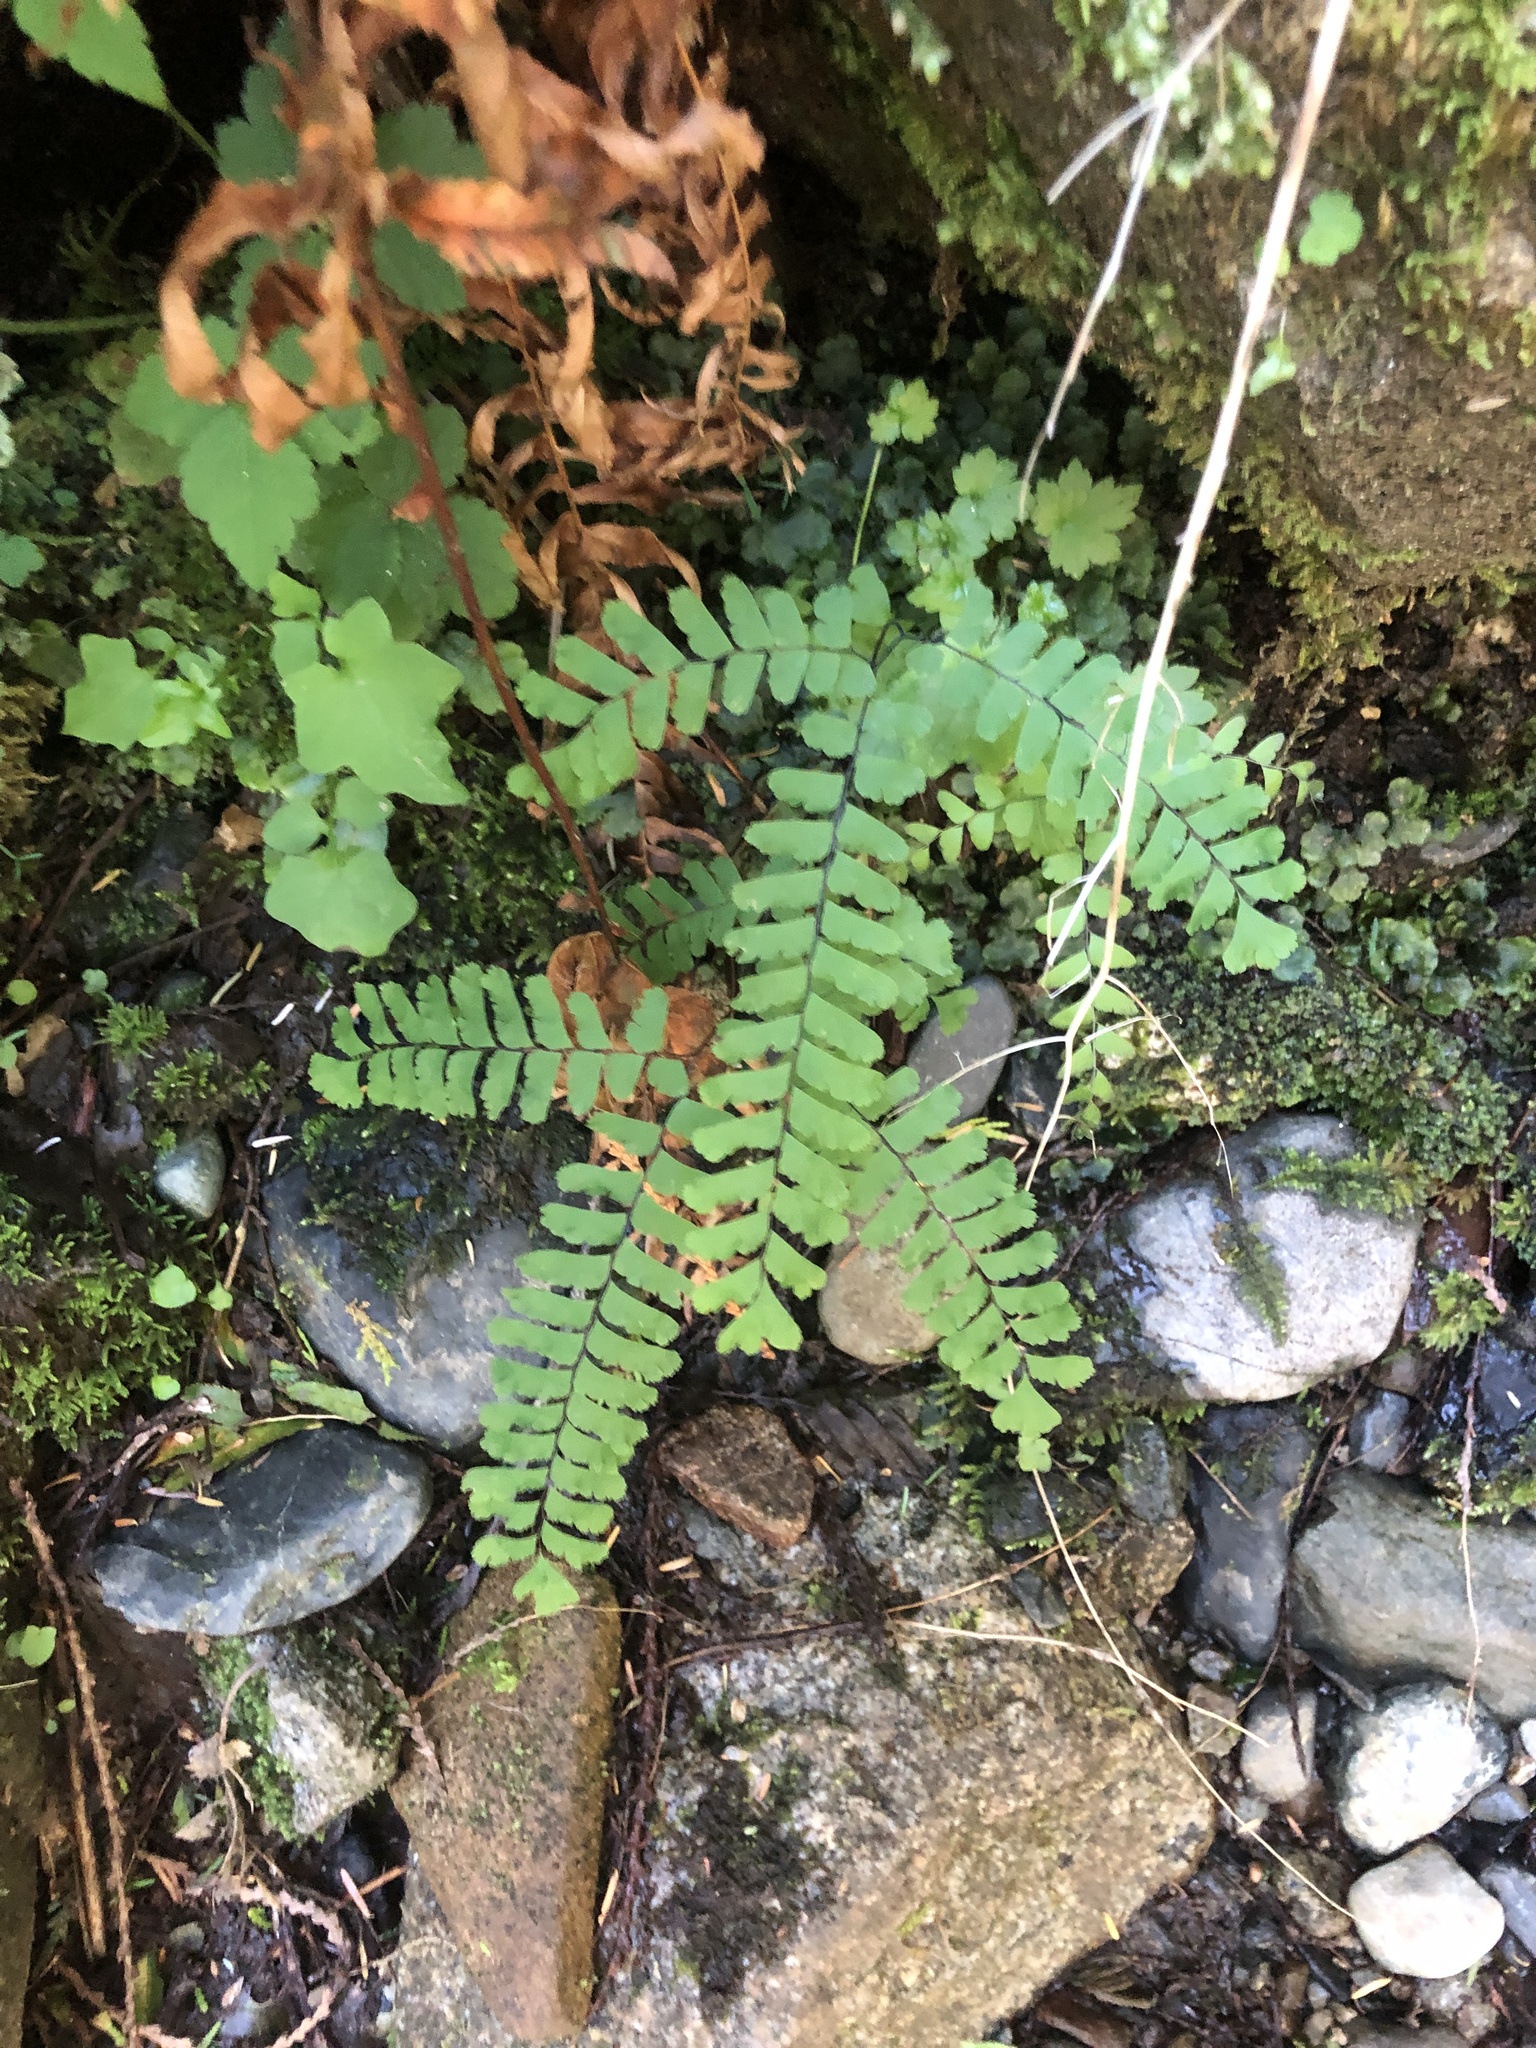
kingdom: Plantae
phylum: Tracheophyta
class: Polypodiopsida
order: Polypodiales
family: Pteridaceae
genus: Adiantum
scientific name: Adiantum aleuticum
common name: Aleutian maidenhair fern
